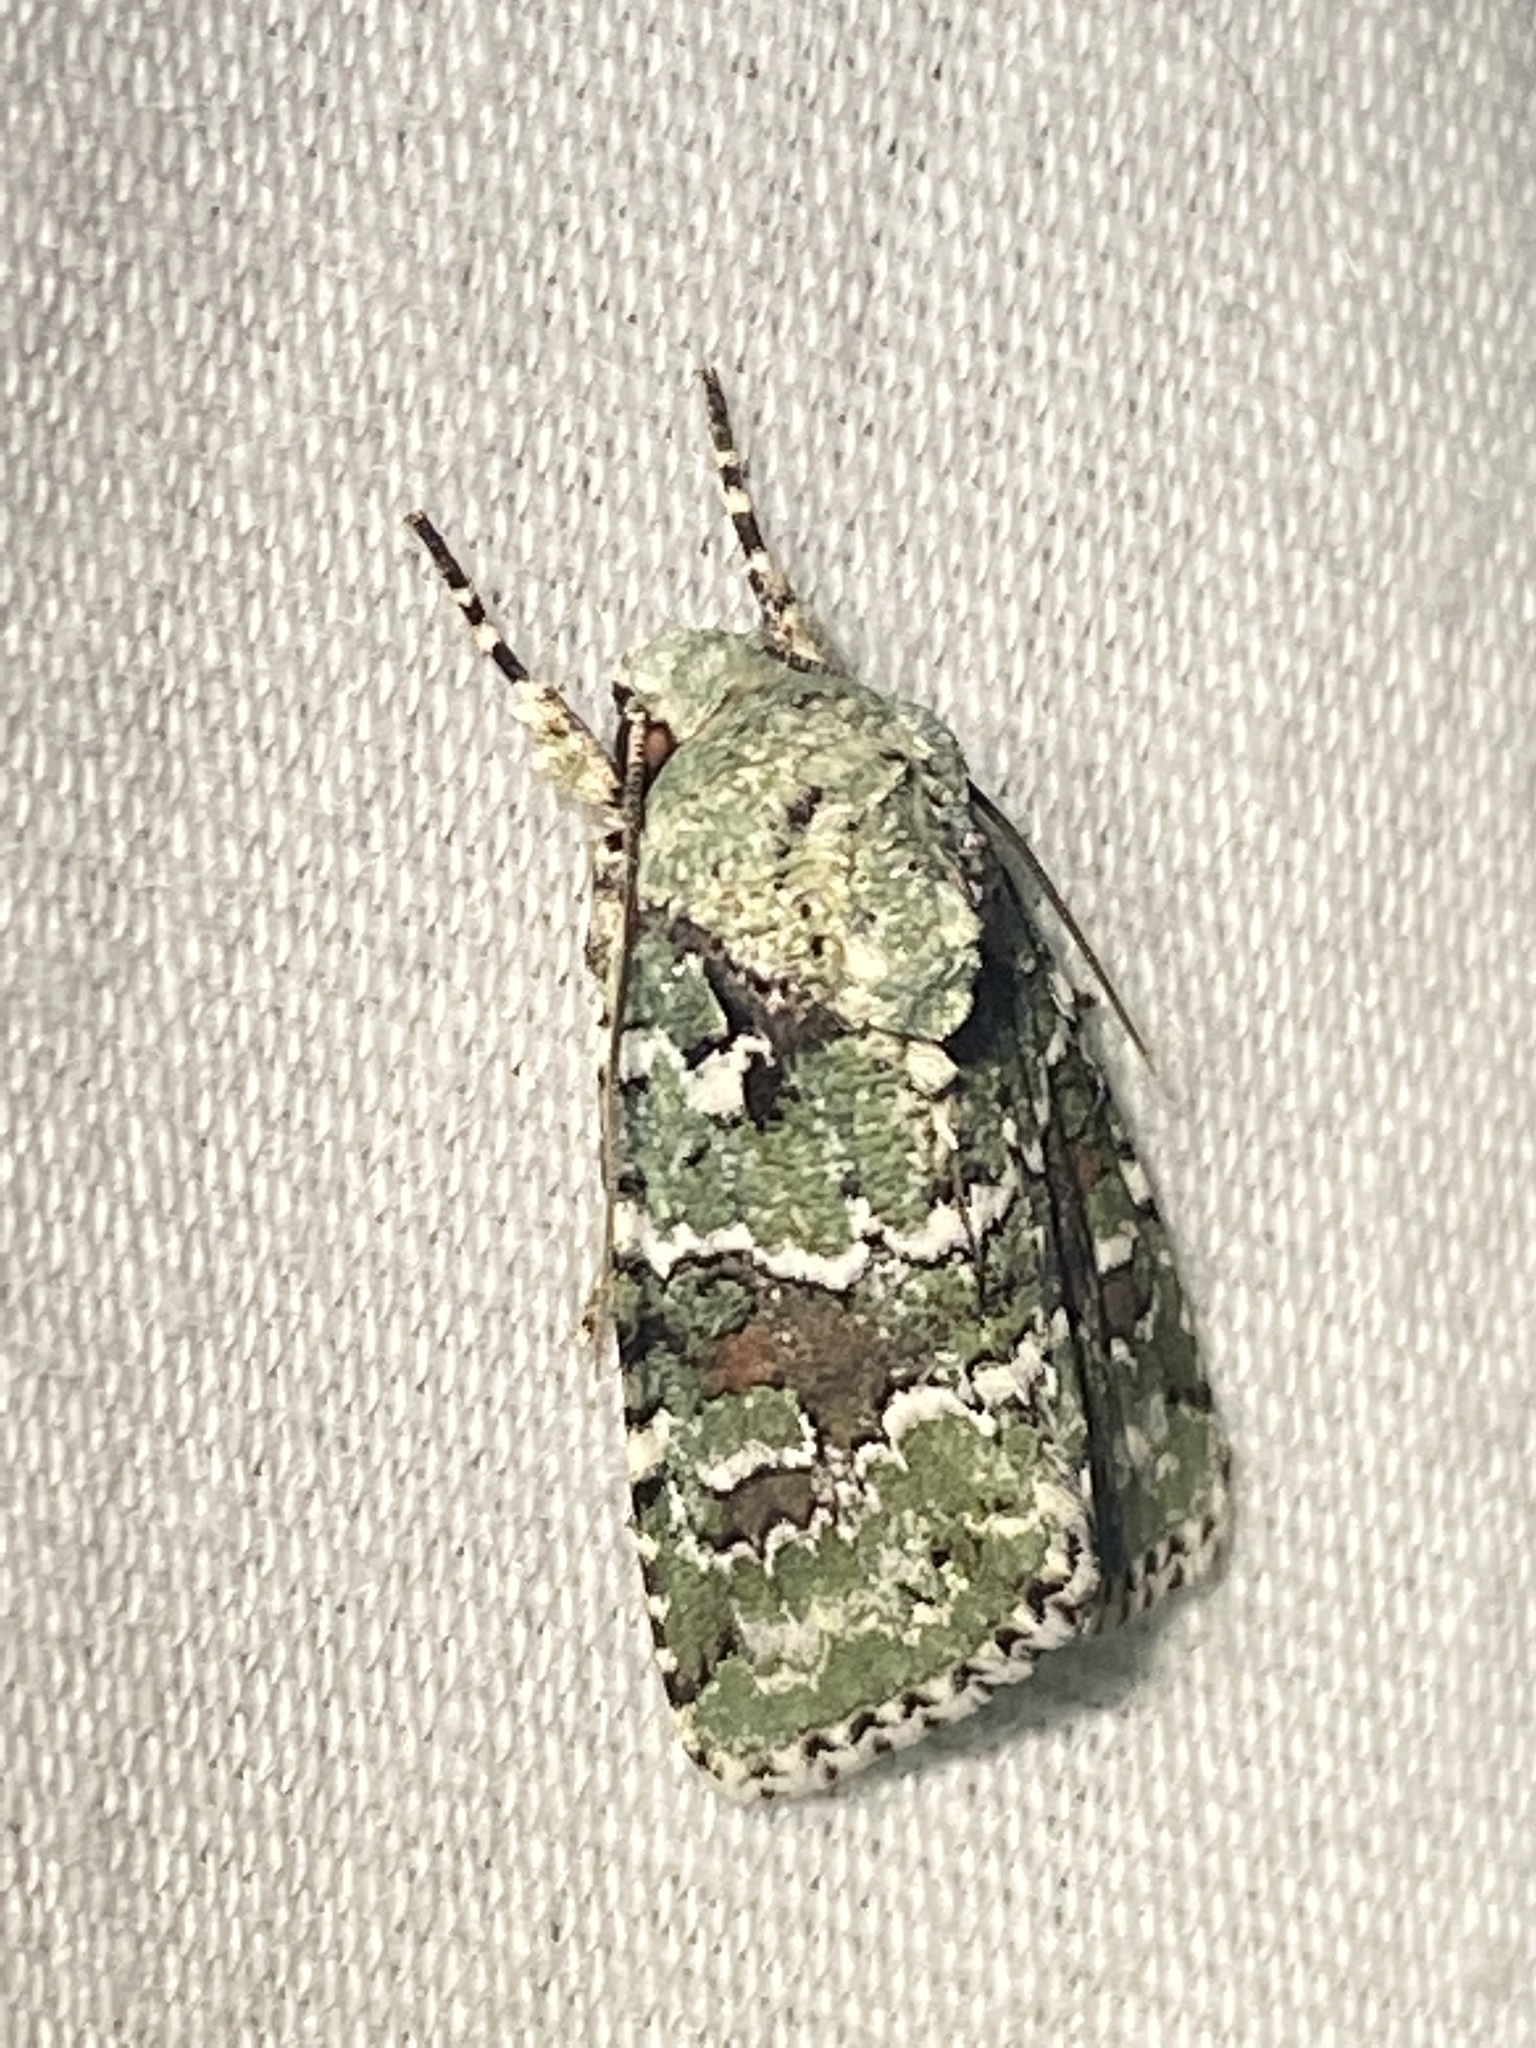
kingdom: Animalia
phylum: Arthropoda
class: Insecta
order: Lepidoptera
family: Noctuidae
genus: Lacinipolia
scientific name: Lacinipolia laudabilis
